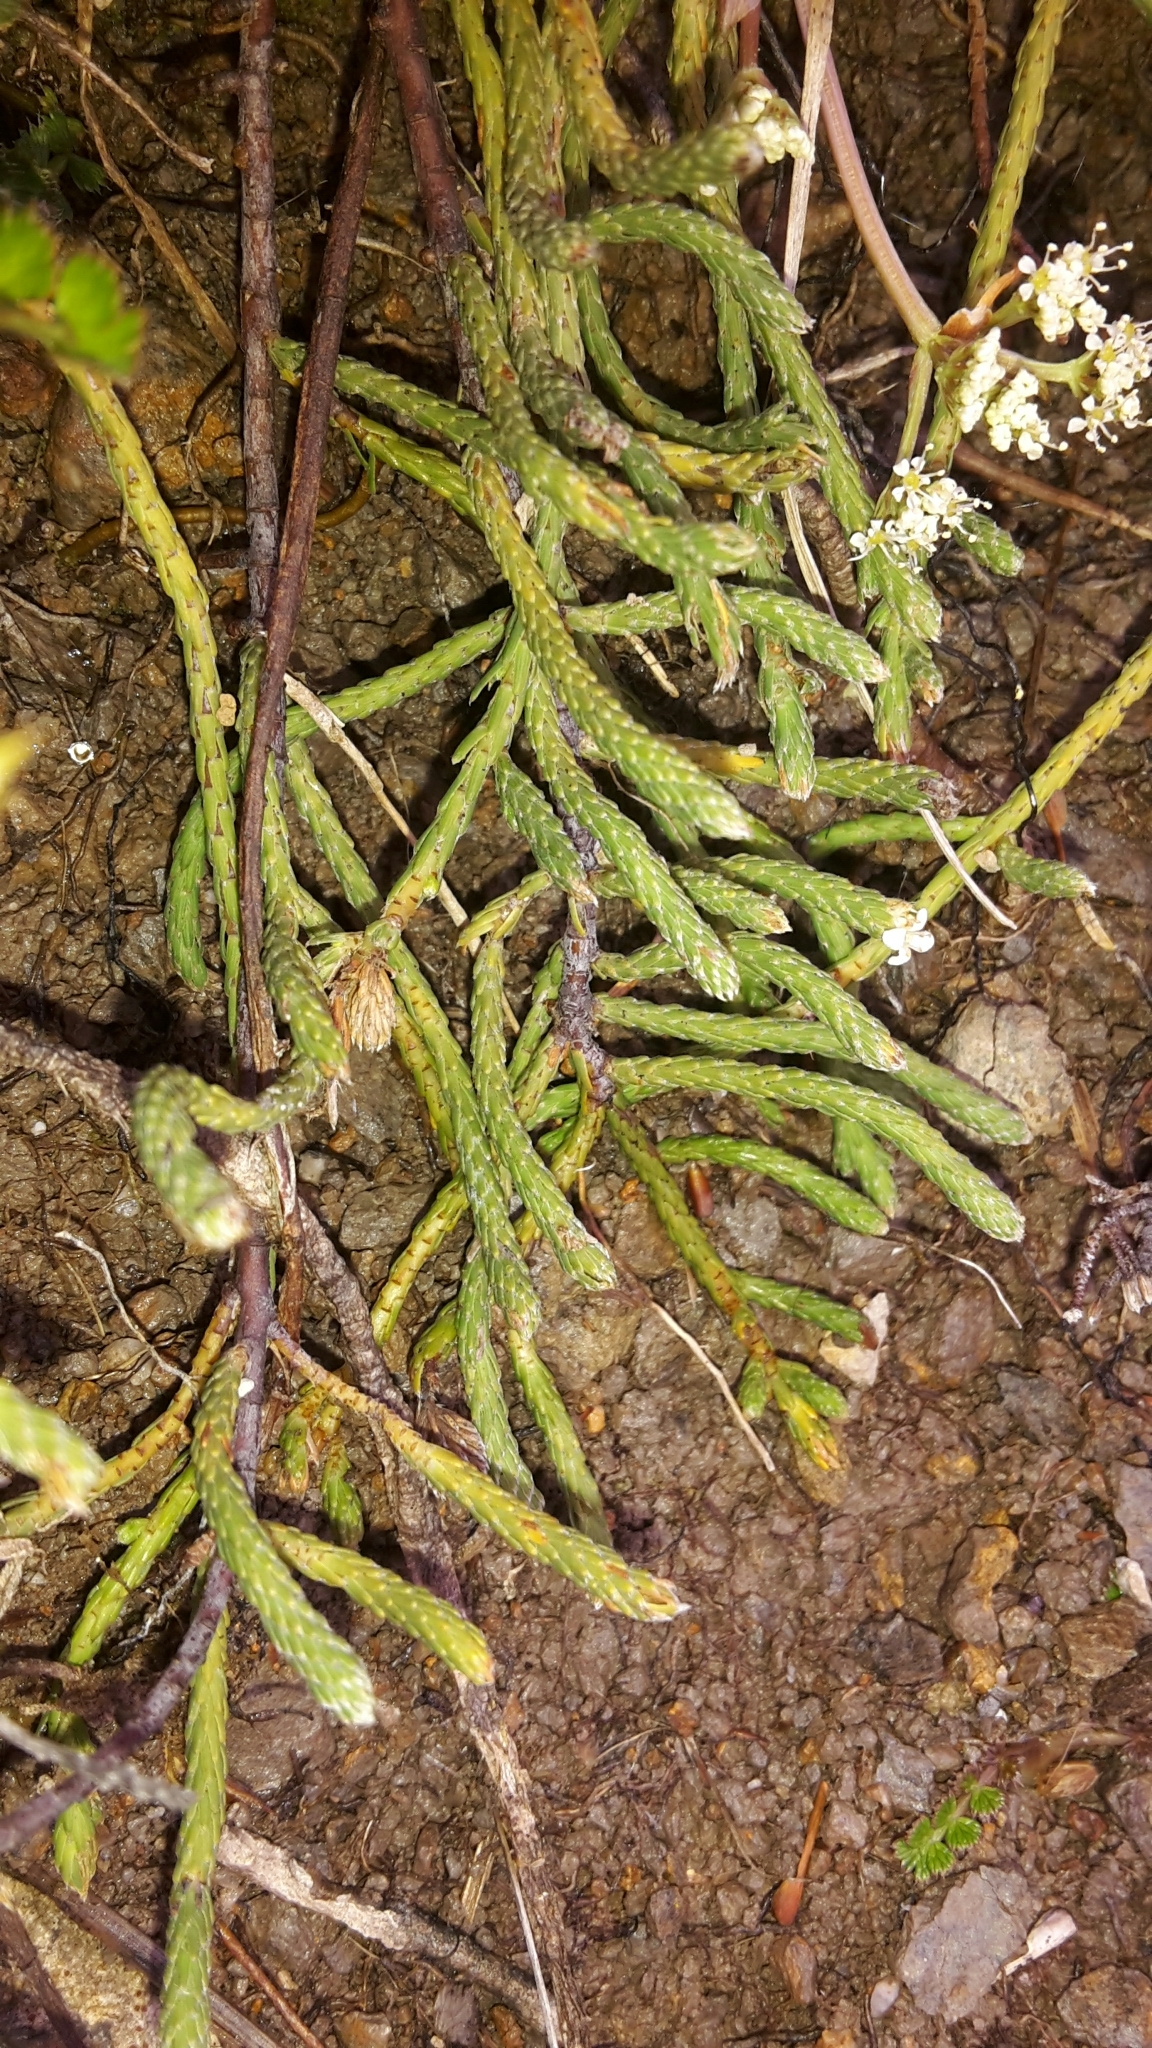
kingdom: Plantae
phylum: Tracheophyta
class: Magnoliopsida
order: Malvales
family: Thymelaeaceae
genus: Kelleria
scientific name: Kelleria dieffenbachii
